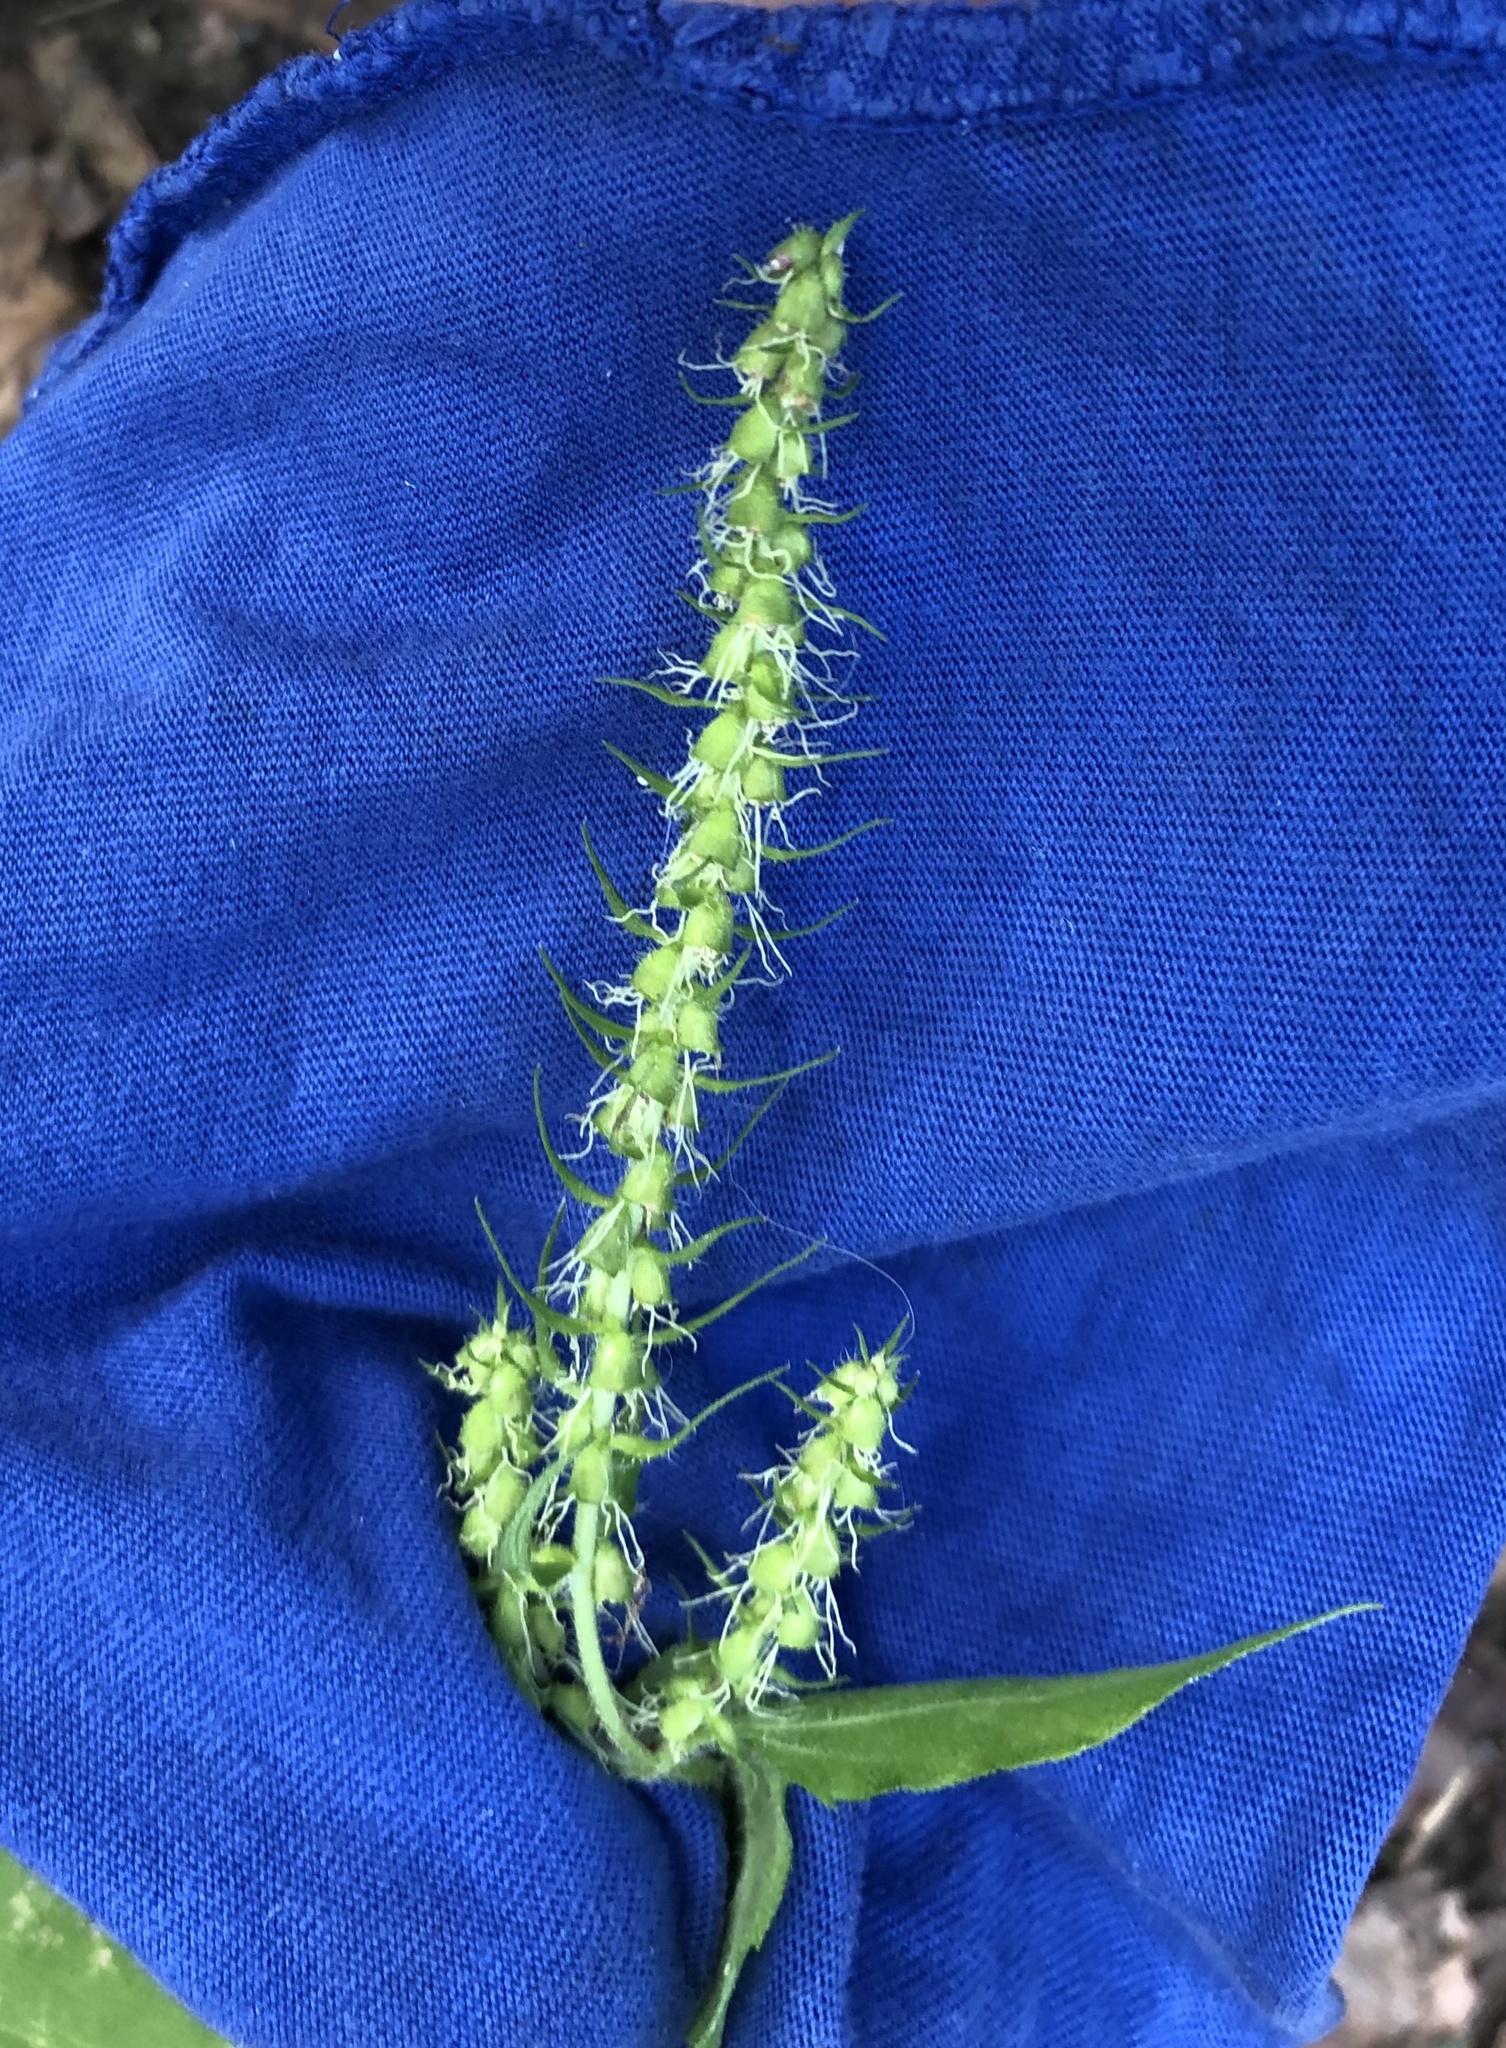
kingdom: Plantae
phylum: Tracheophyta
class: Magnoliopsida
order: Asterales
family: Asteraceae
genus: Iva
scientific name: Iva annua
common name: Marsh-elder
